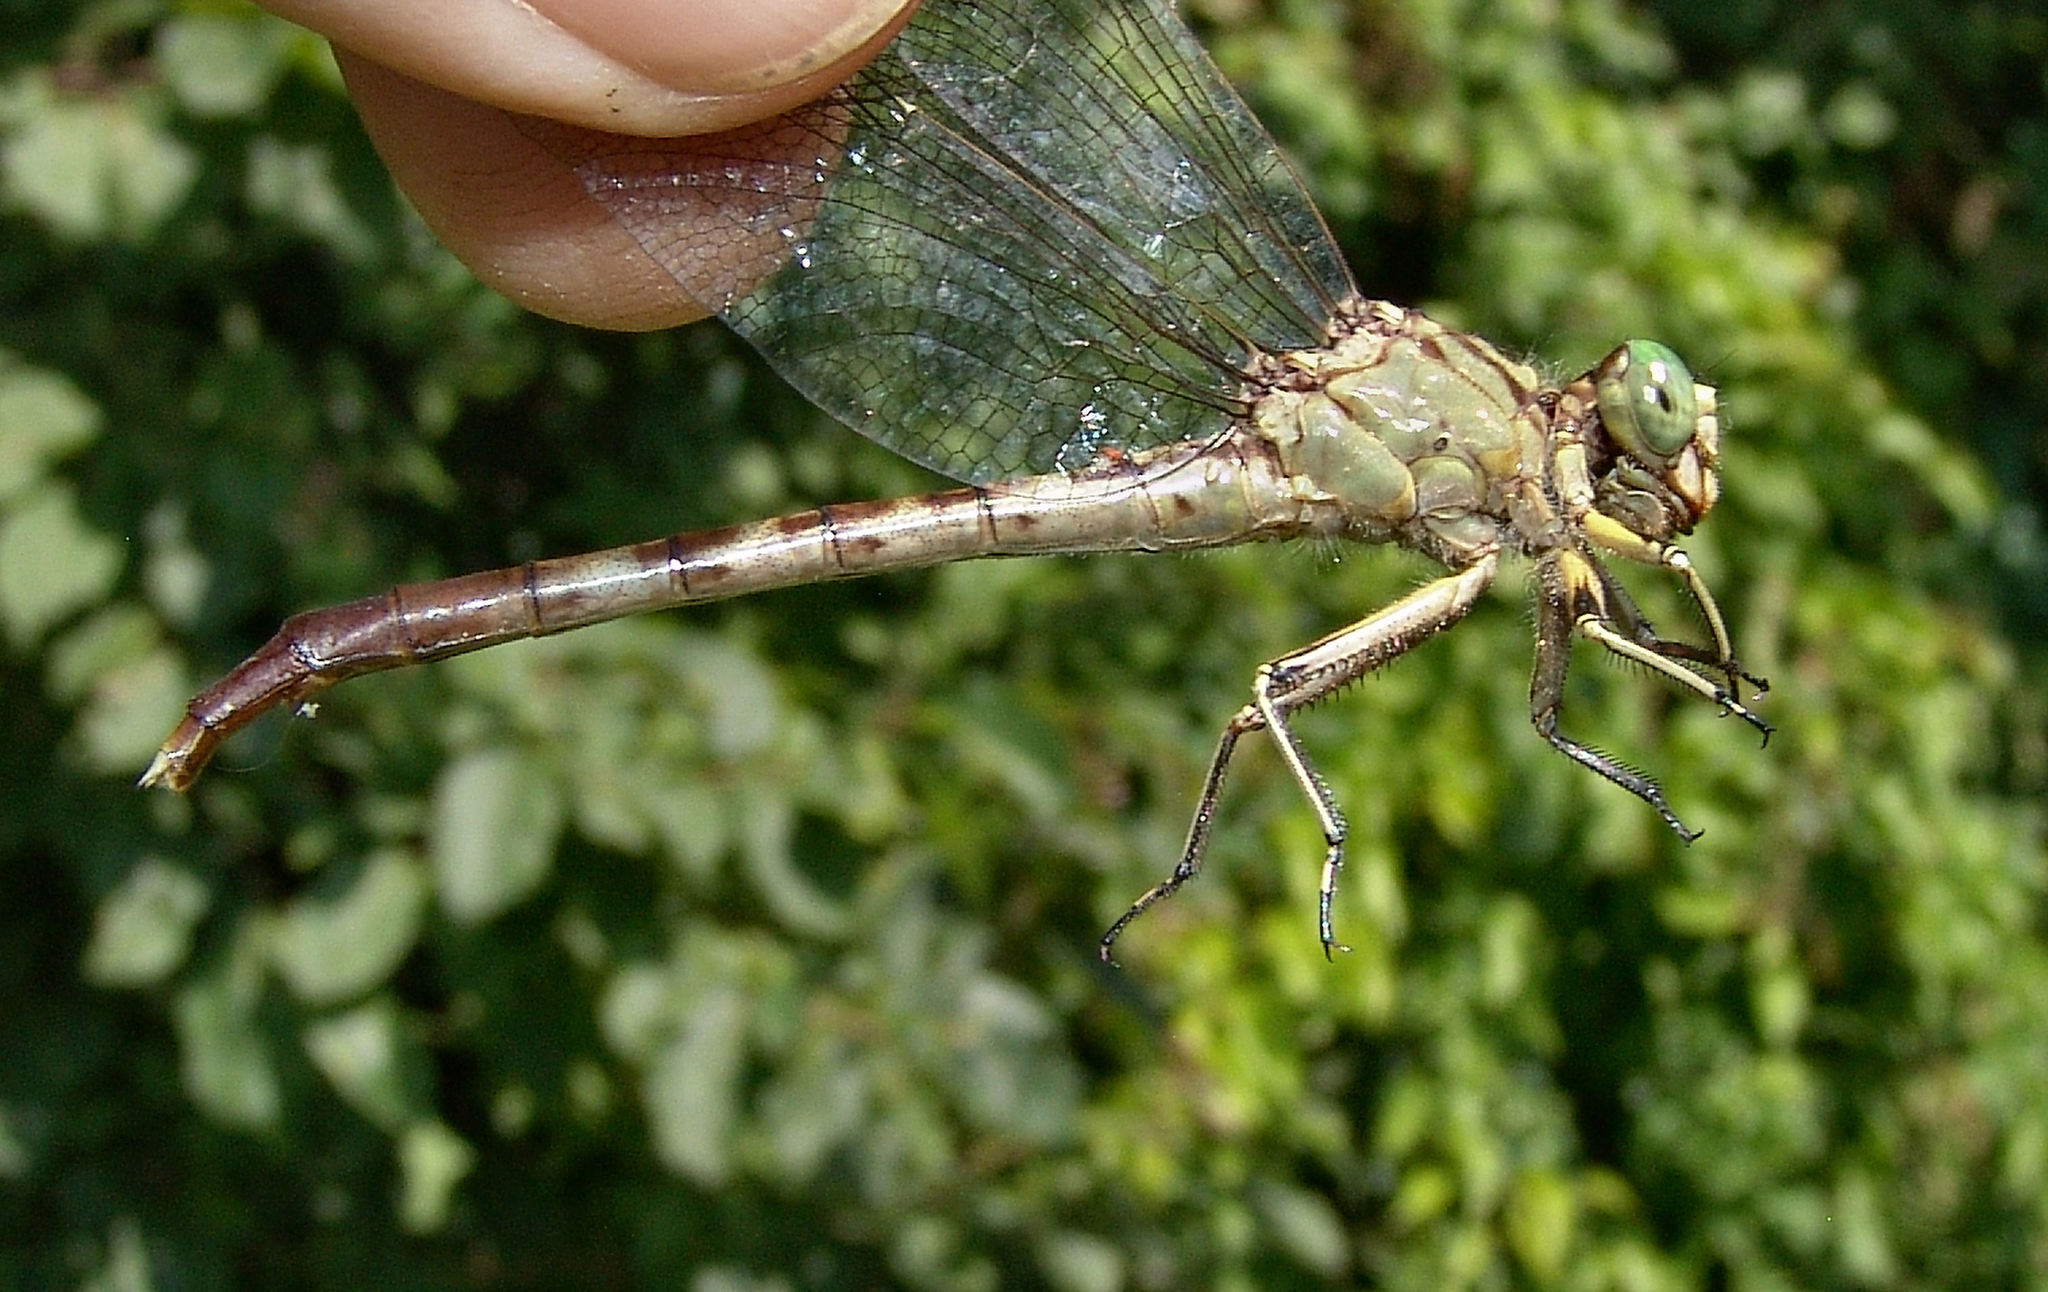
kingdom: Animalia
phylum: Arthropoda
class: Insecta
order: Odonata
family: Gomphidae
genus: Arigomphus
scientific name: Arigomphus submedianus
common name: Jade clubtail
